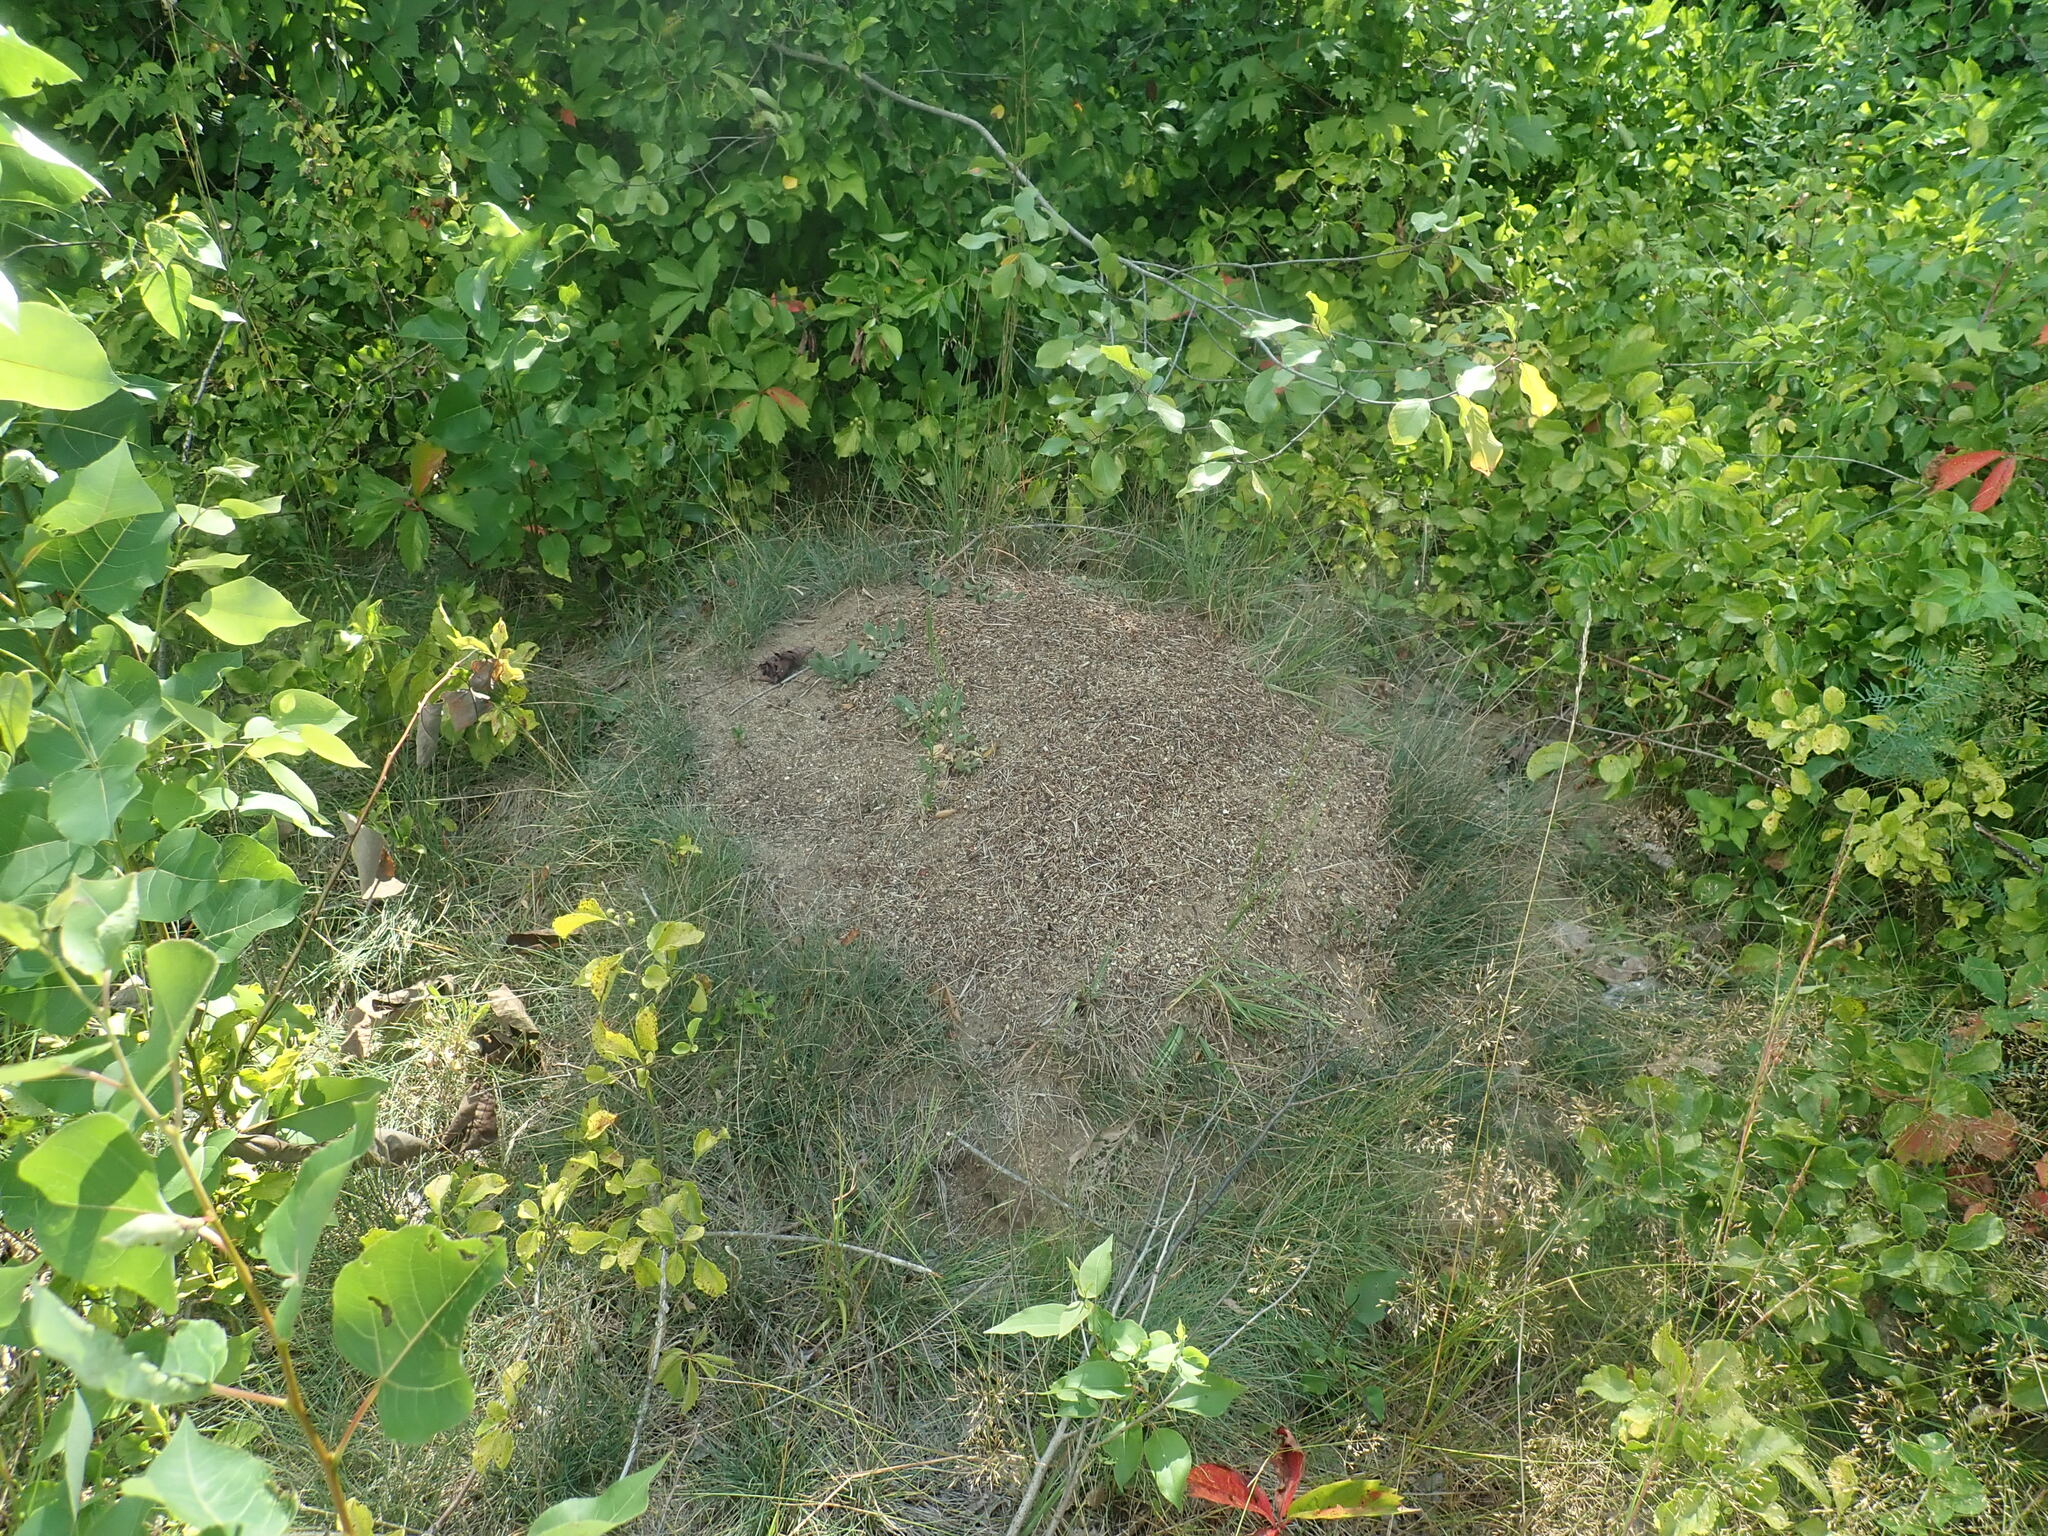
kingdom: Animalia
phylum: Arthropoda
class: Insecta
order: Hymenoptera
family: Formicidae
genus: Formica
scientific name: Formica exsectoides
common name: Allegheny mound ant
